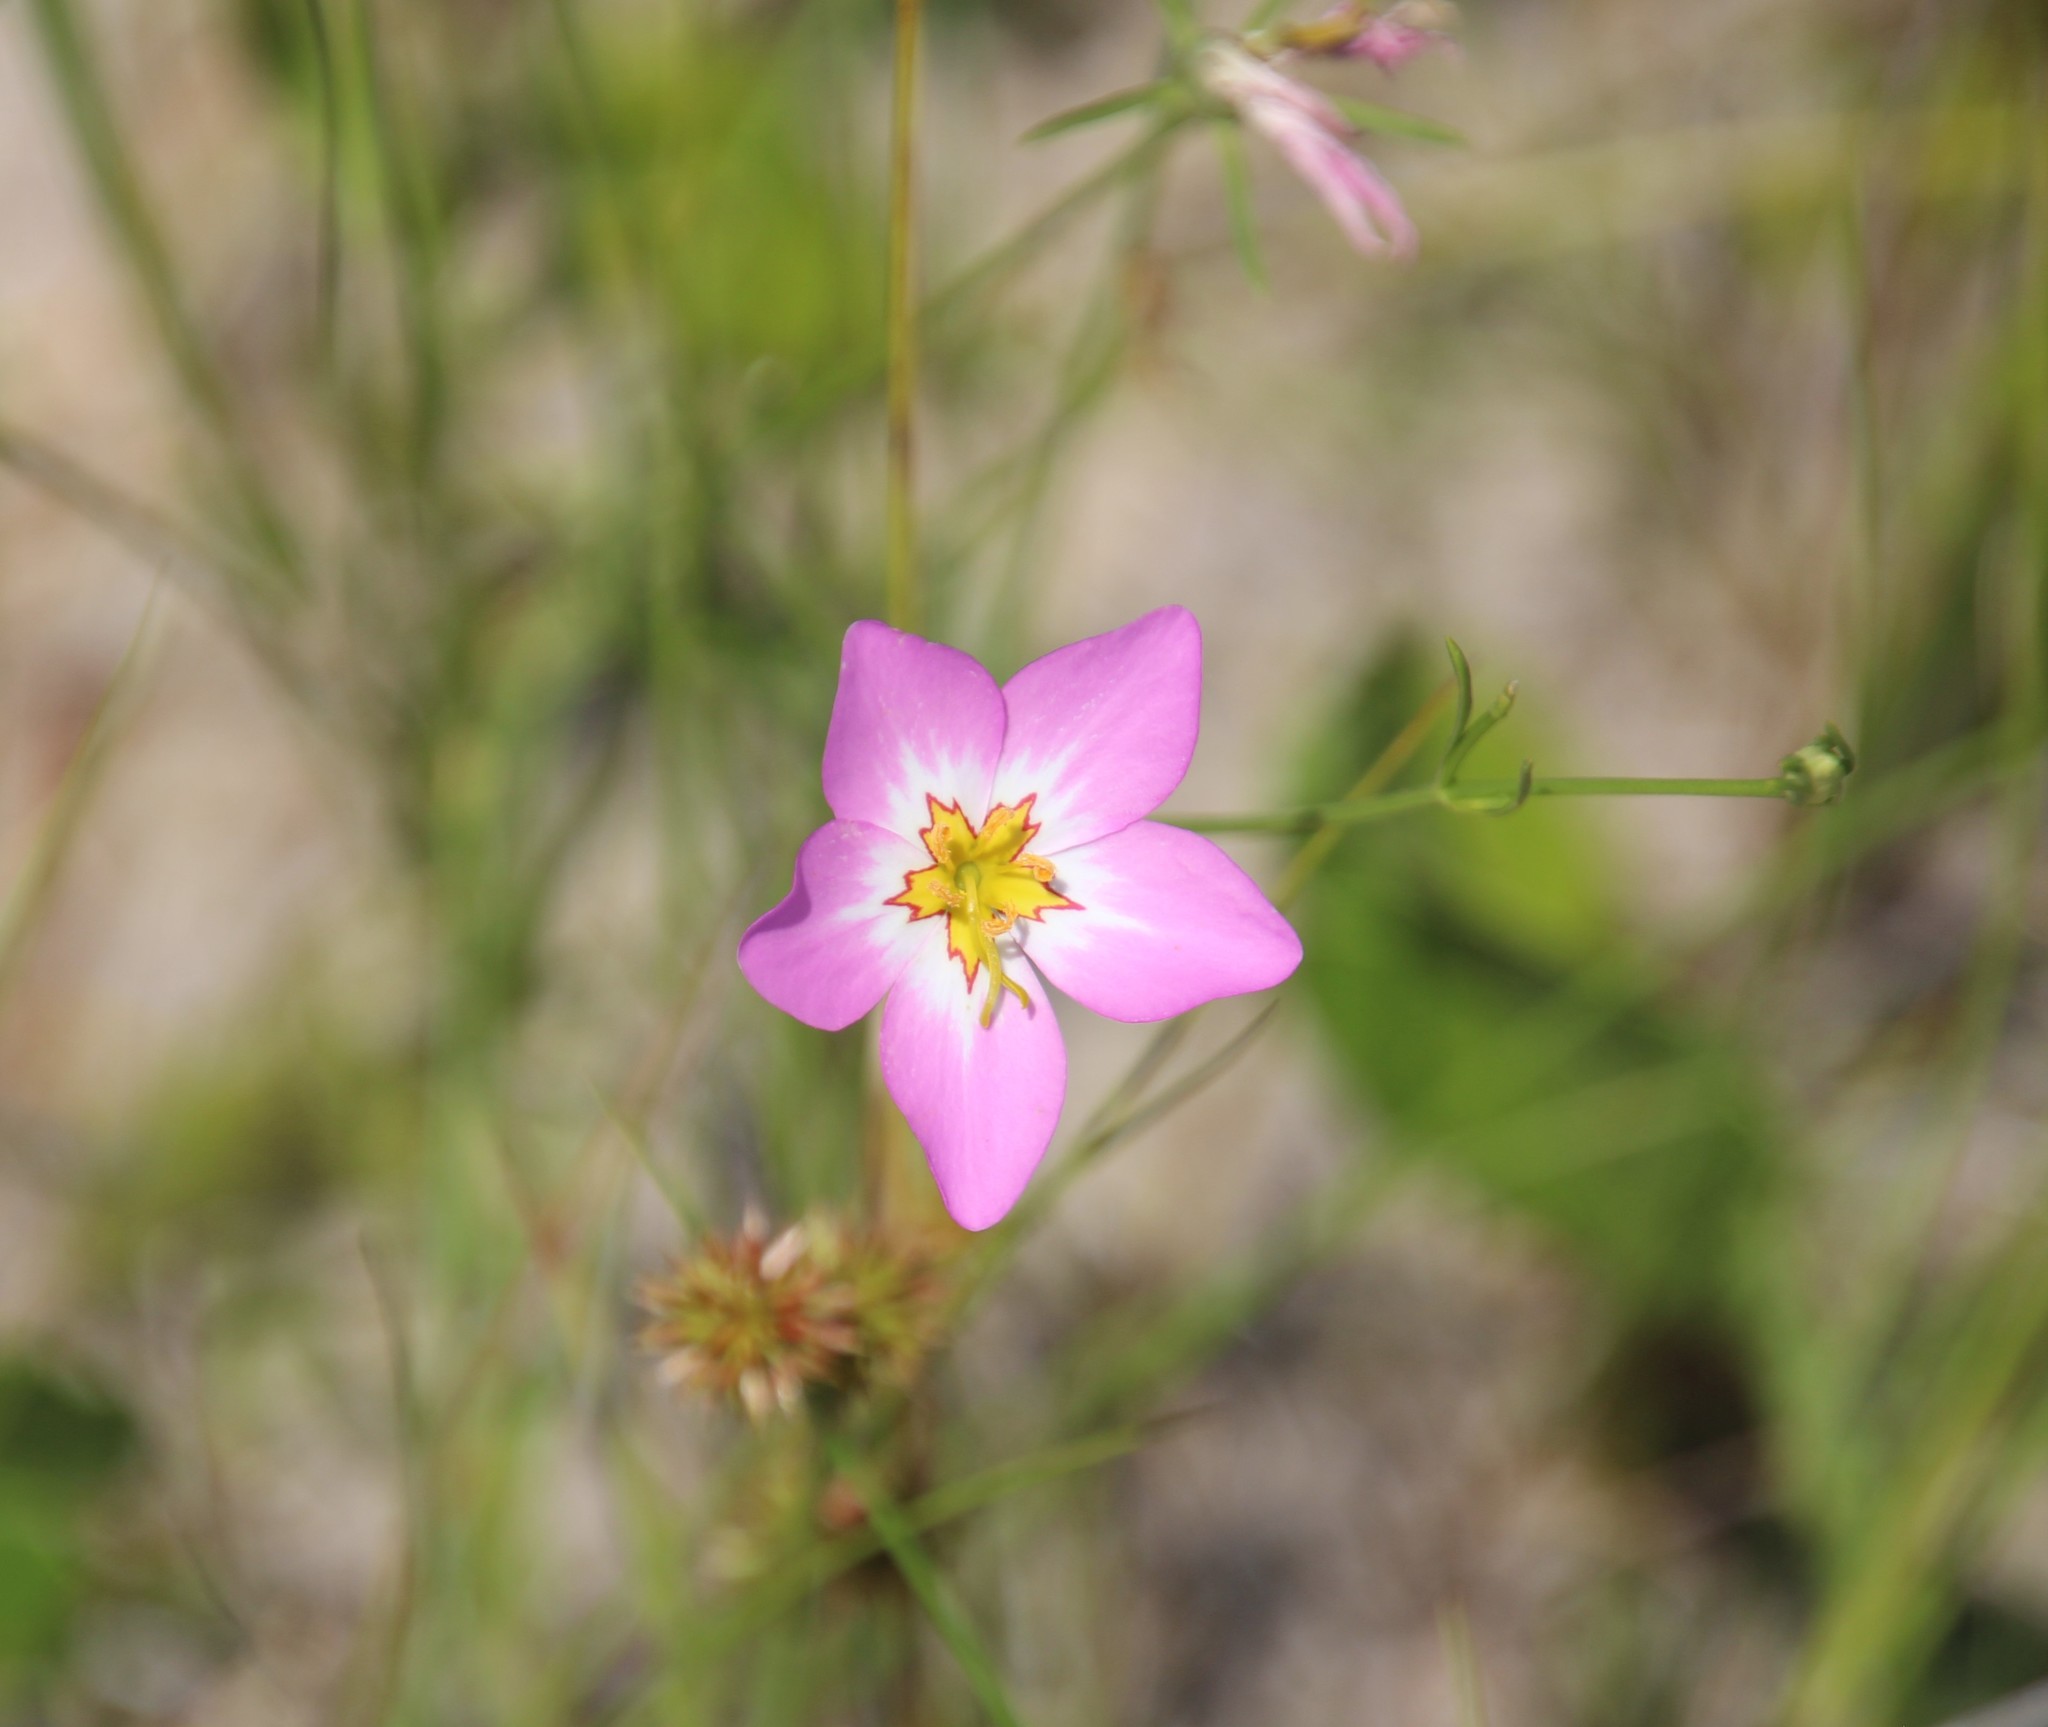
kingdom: Plantae
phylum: Tracheophyta
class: Magnoliopsida
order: Gentianales
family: Gentianaceae
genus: Sabatia
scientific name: Sabatia stellaris
